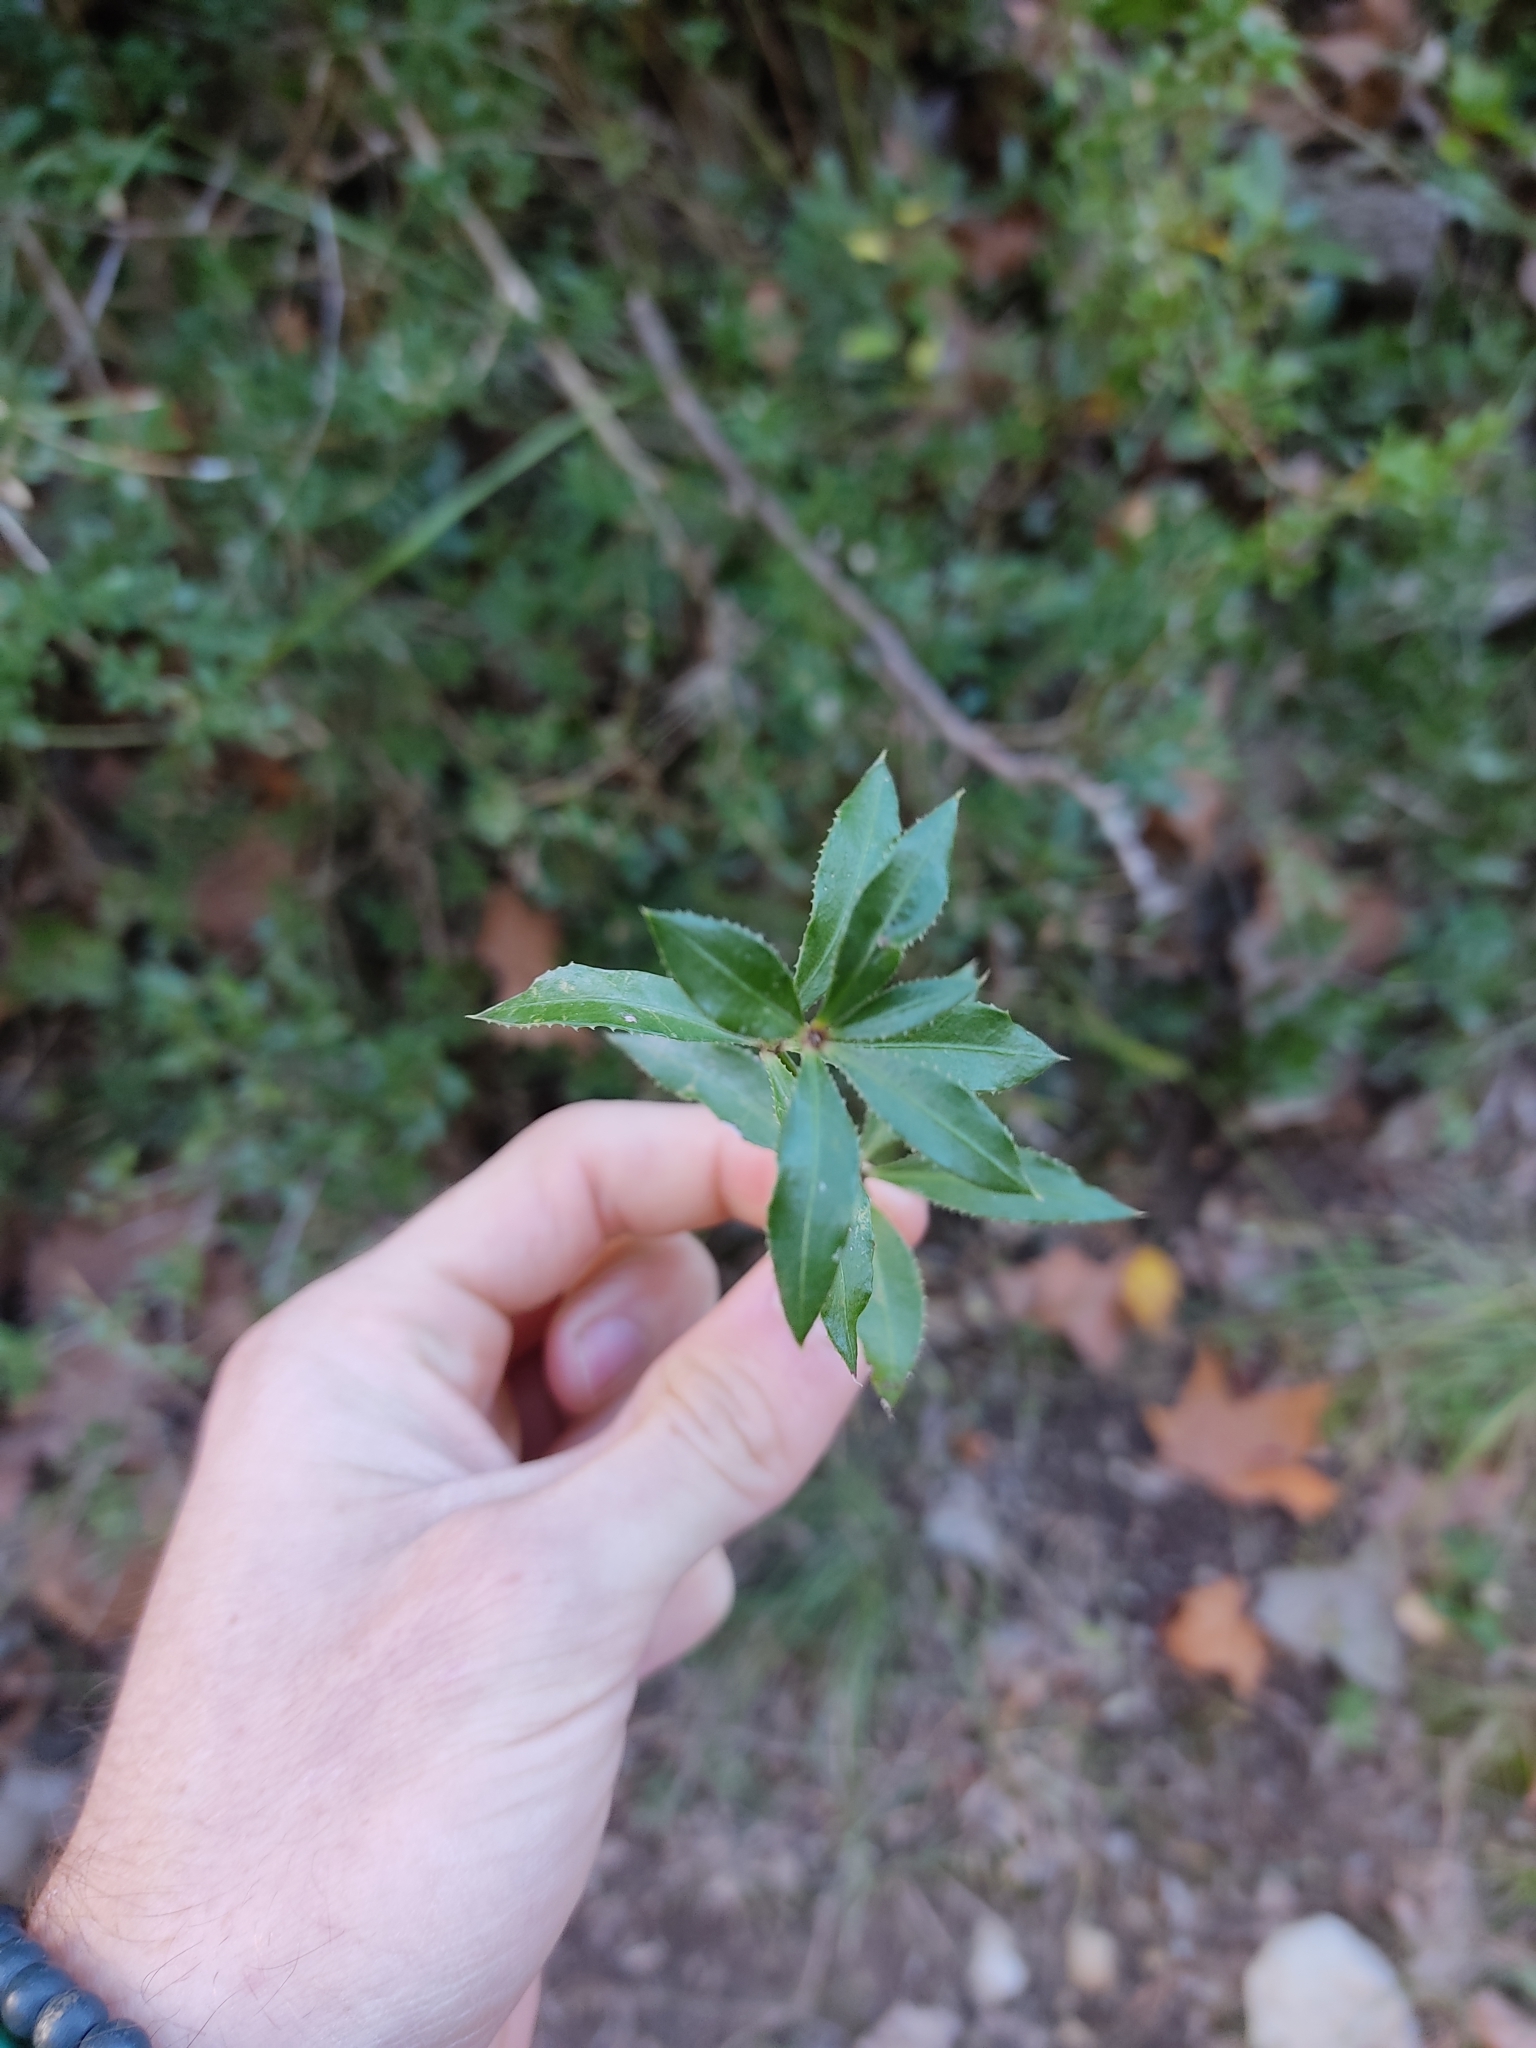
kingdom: Plantae
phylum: Tracheophyta
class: Magnoliopsida
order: Gentianales
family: Rubiaceae
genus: Rubia
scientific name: Rubia peregrina
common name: Wild madder
